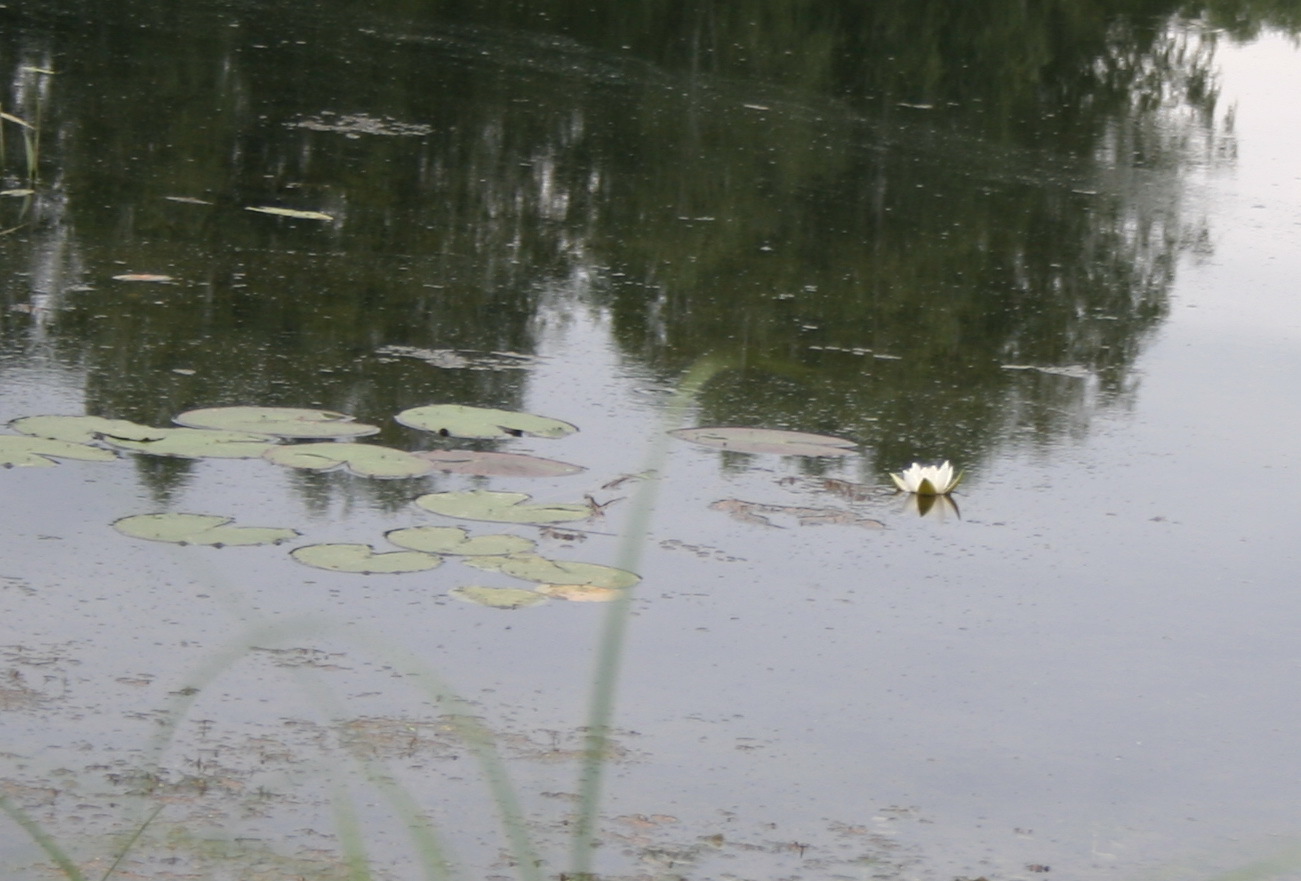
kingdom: Plantae
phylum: Tracheophyta
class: Magnoliopsida
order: Nymphaeales
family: Nymphaeaceae
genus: Nymphaea
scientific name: Nymphaea candida
